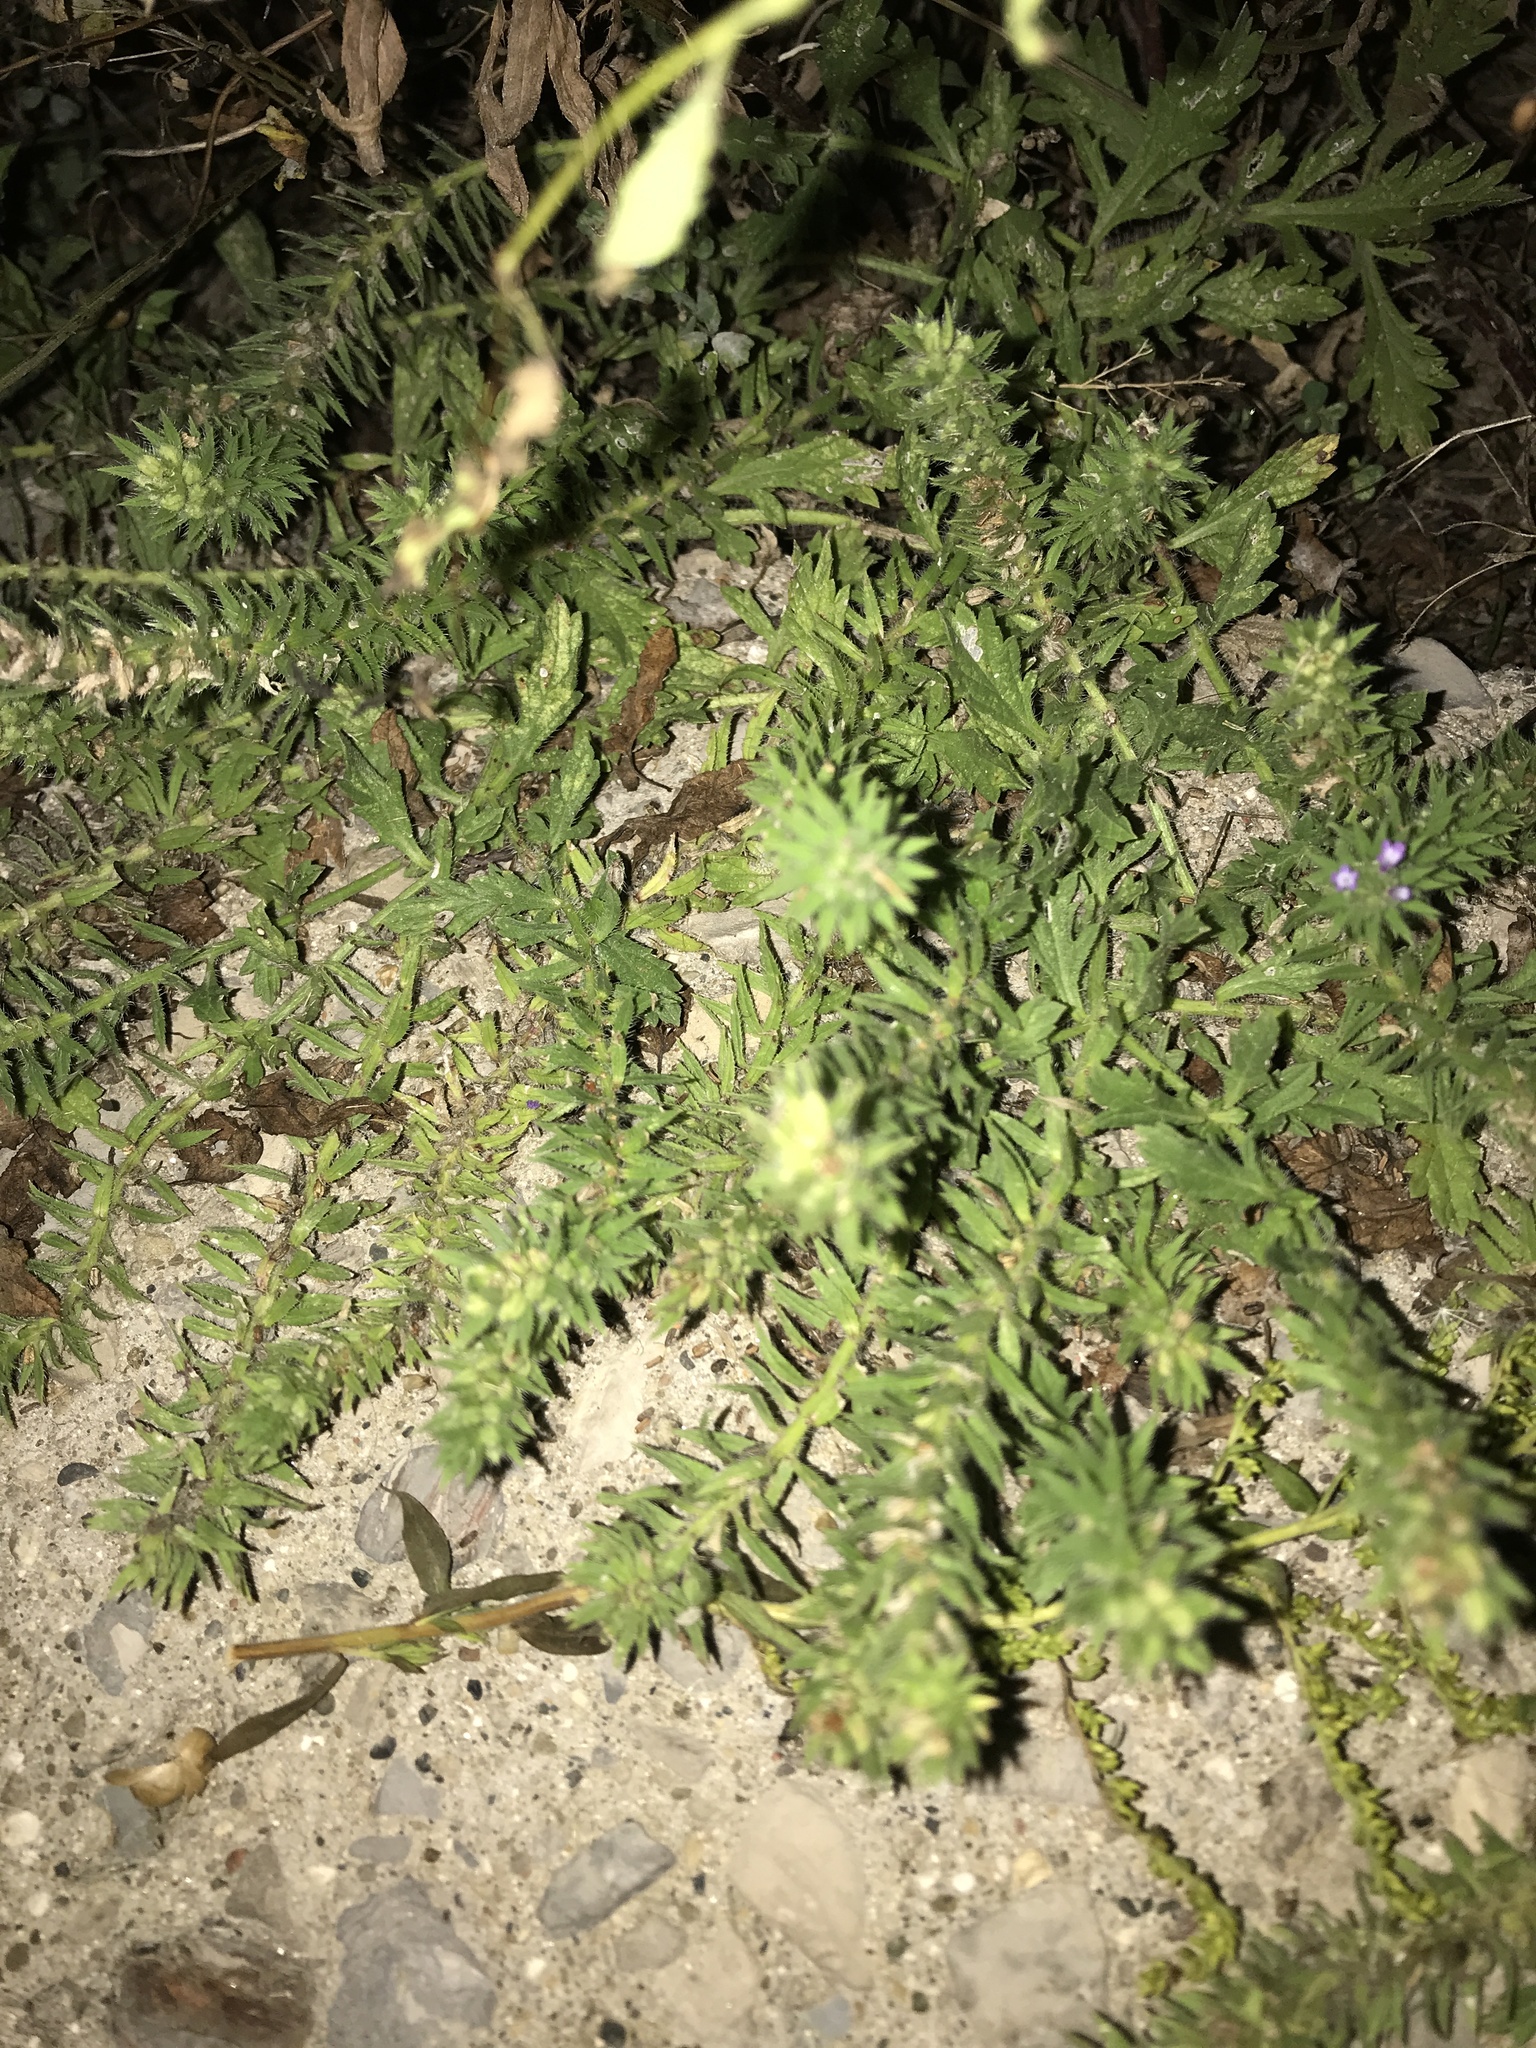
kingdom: Plantae
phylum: Tracheophyta
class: Magnoliopsida
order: Lamiales
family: Verbenaceae
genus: Verbena
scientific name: Verbena bracteata
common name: Bracted vervain
